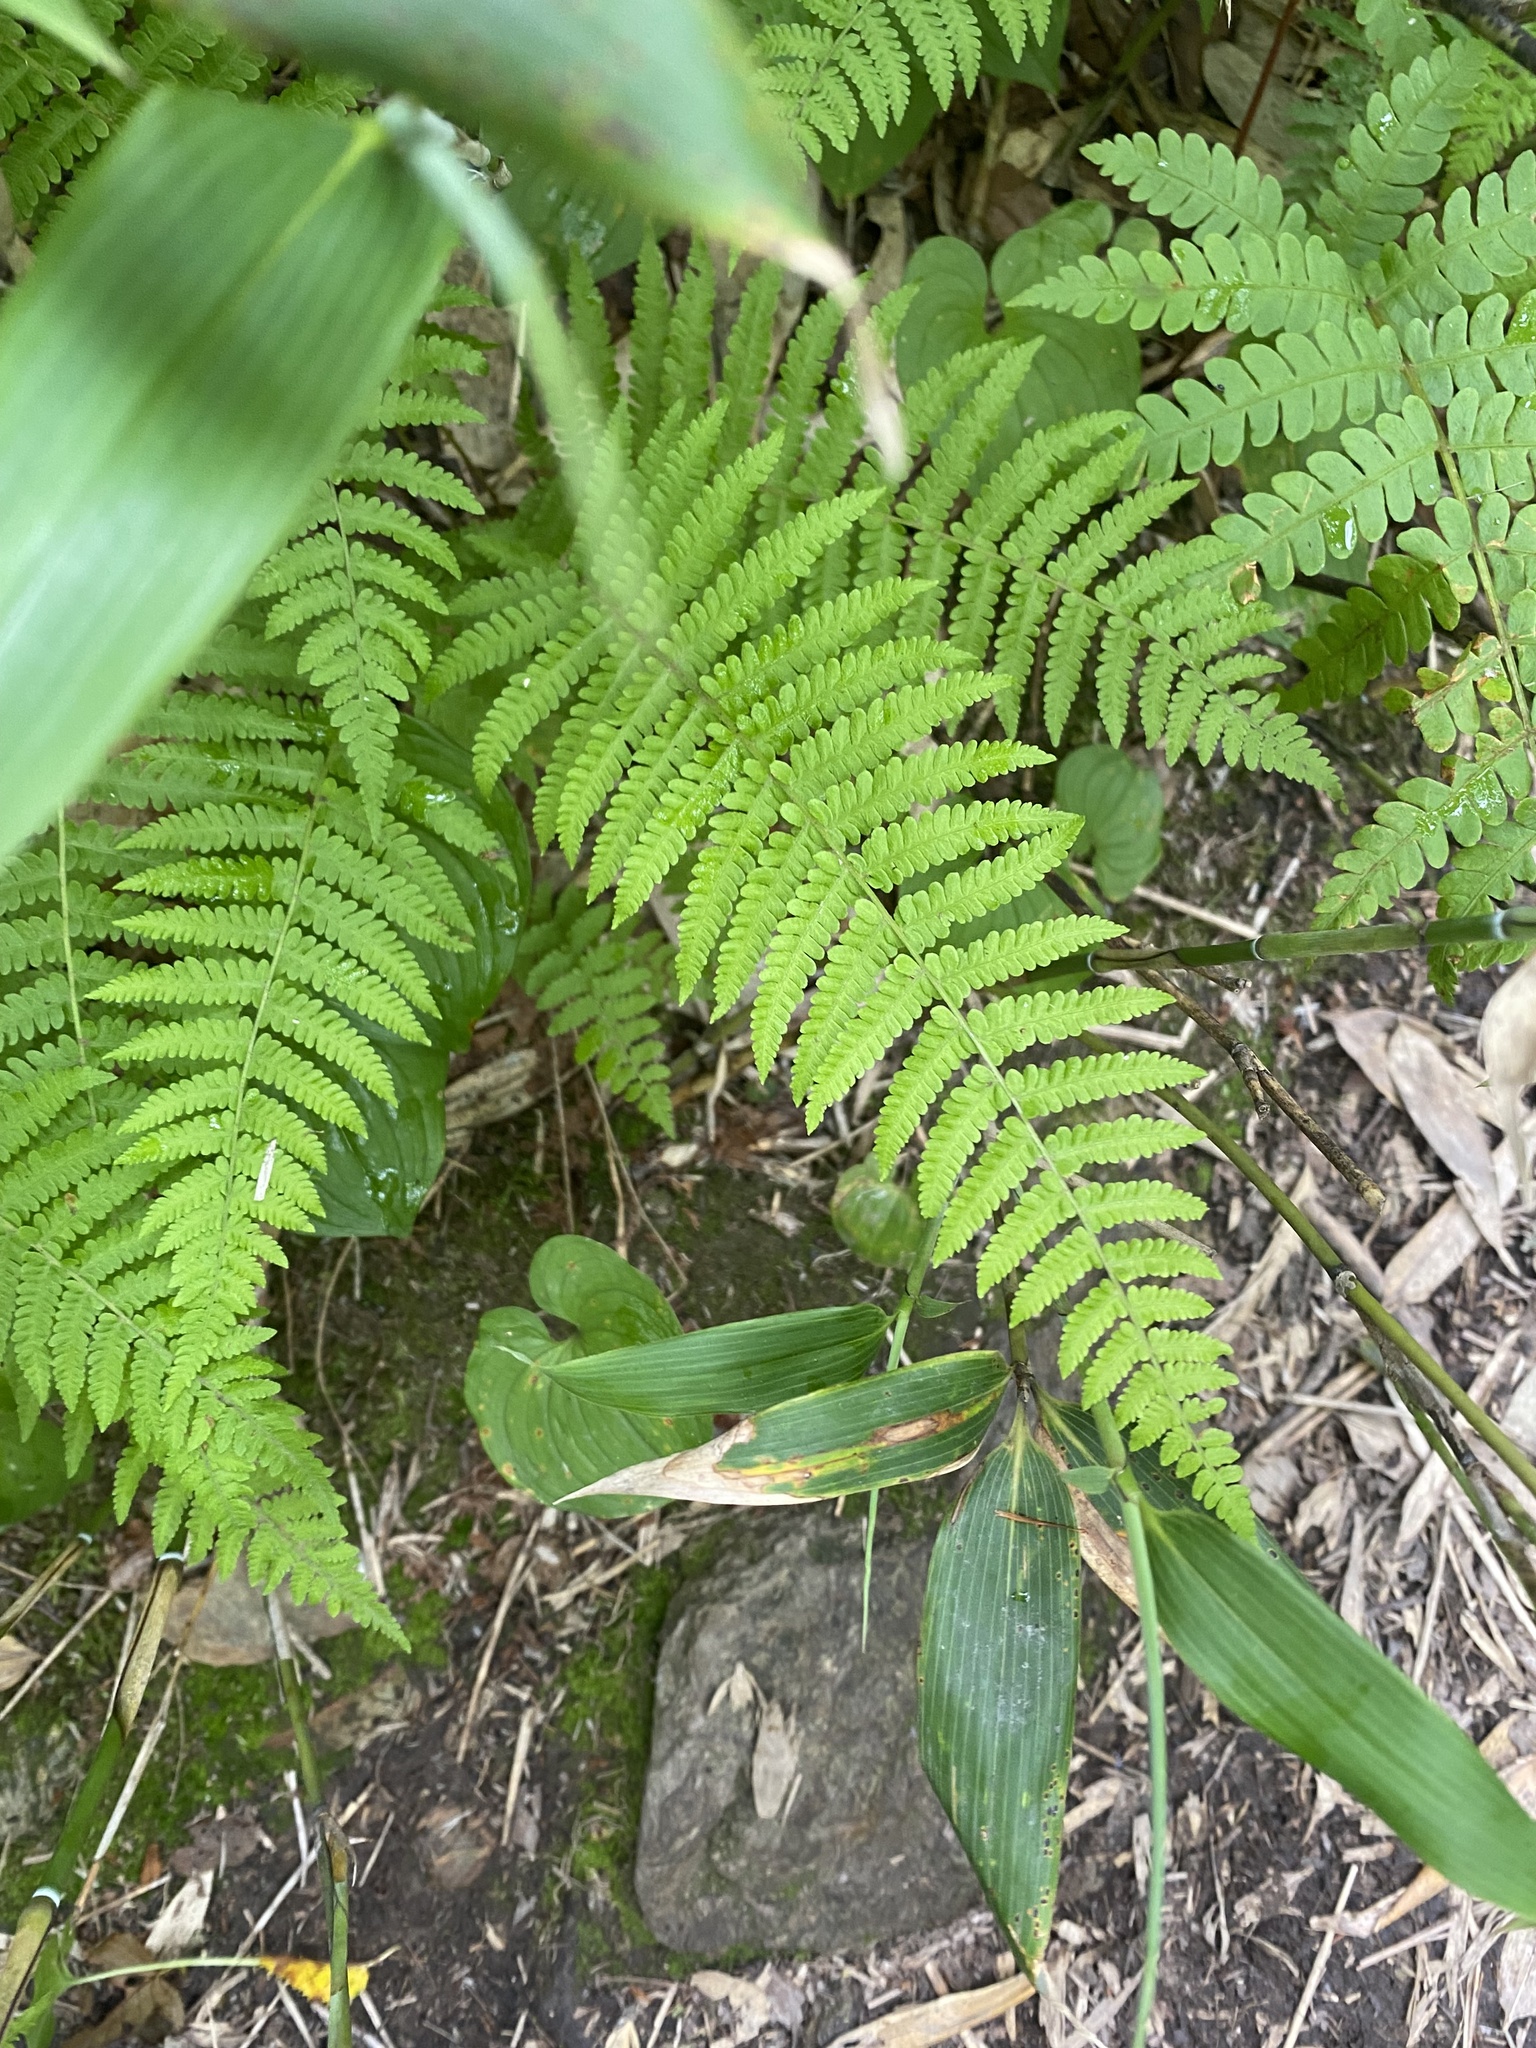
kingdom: Plantae
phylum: Tracheophyta
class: Polypodiopsida
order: Polypodiales
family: Thelypteridaceae
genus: Coryphopteris
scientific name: Coryphopteris nipponica
